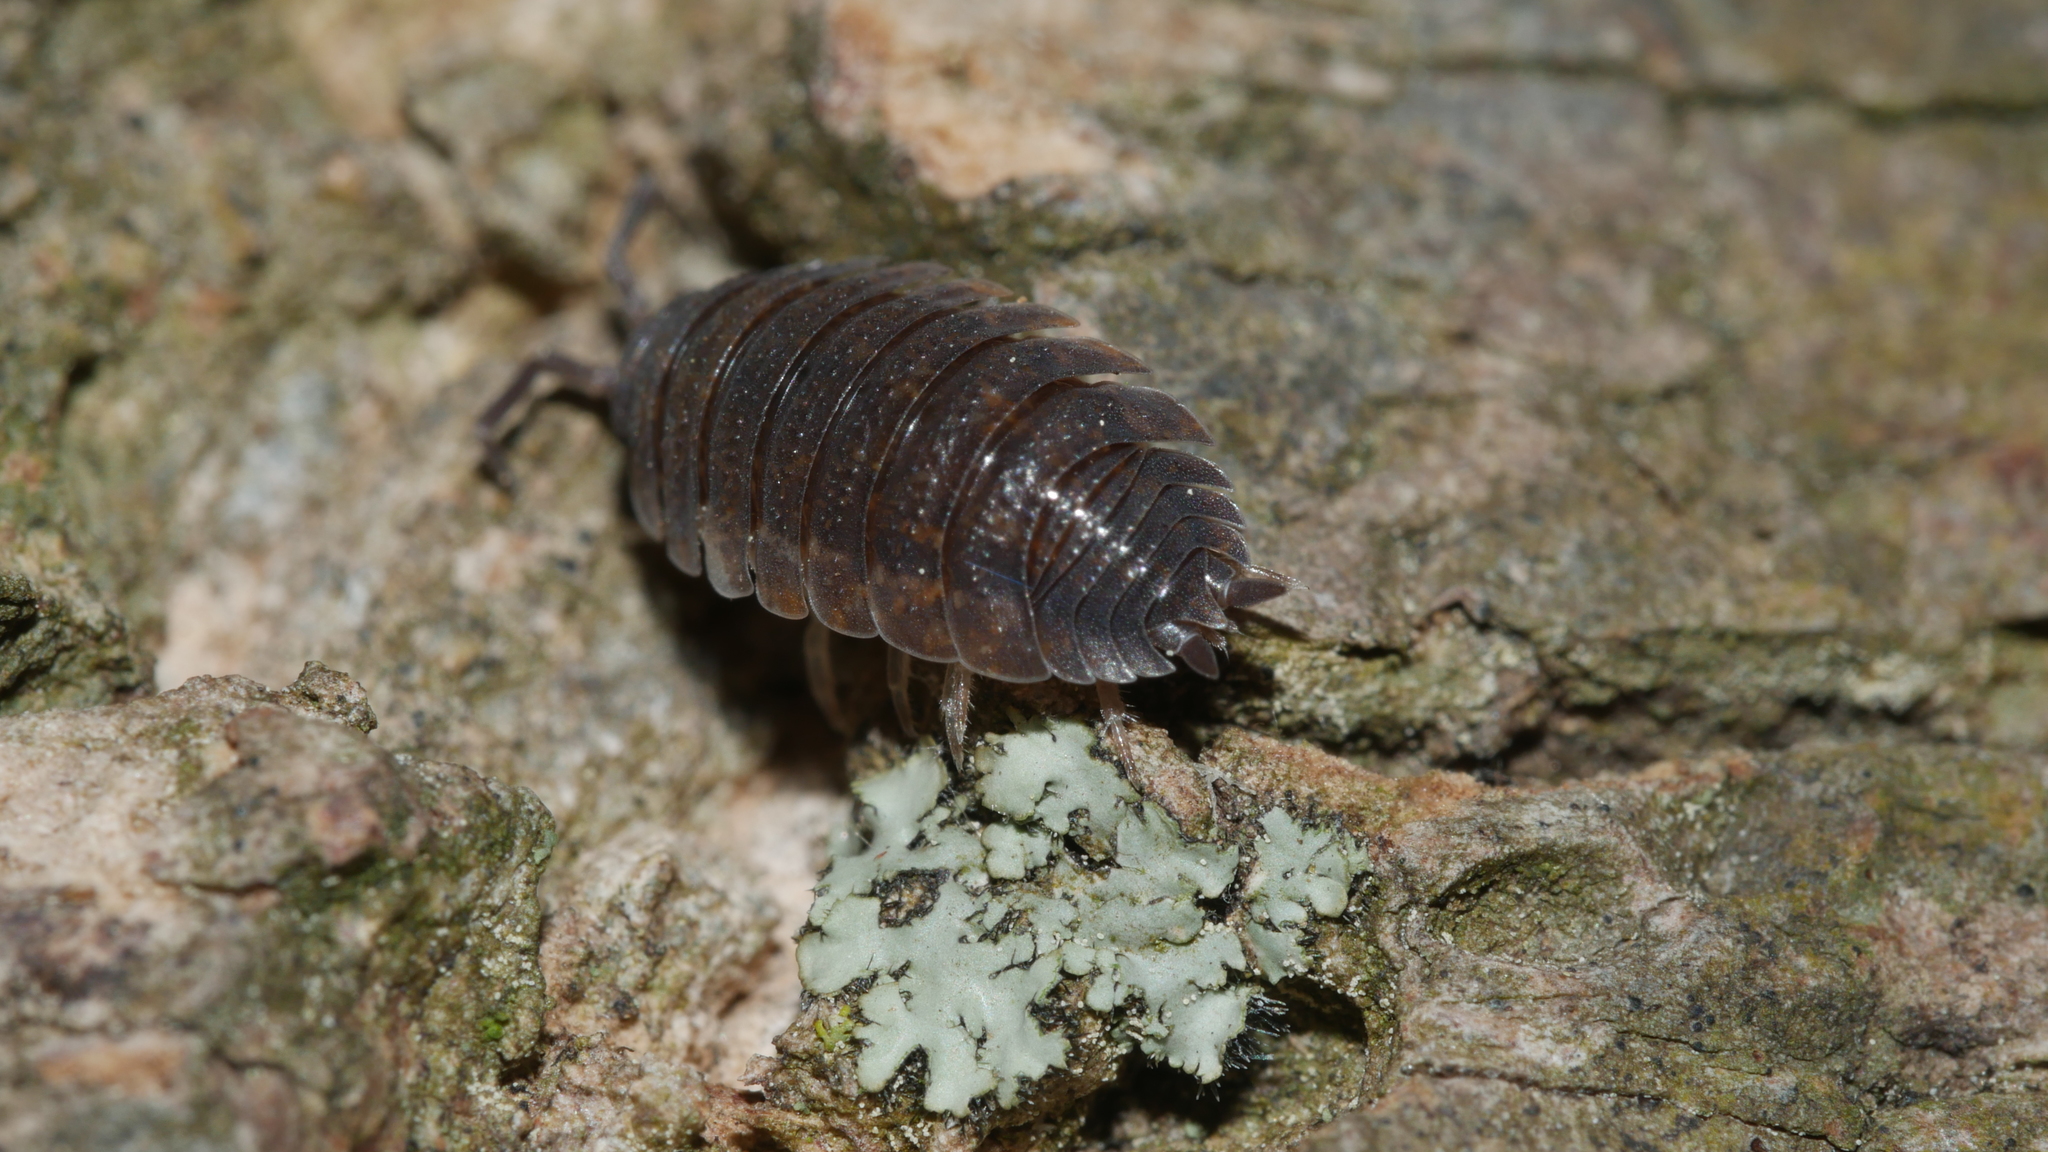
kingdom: Animalia
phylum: Arthropoda
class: Malacostraca
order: Isopoda
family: Porcellionidae
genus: Porcellio
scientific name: Porcellio scaber
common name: Common rough woodlouse
